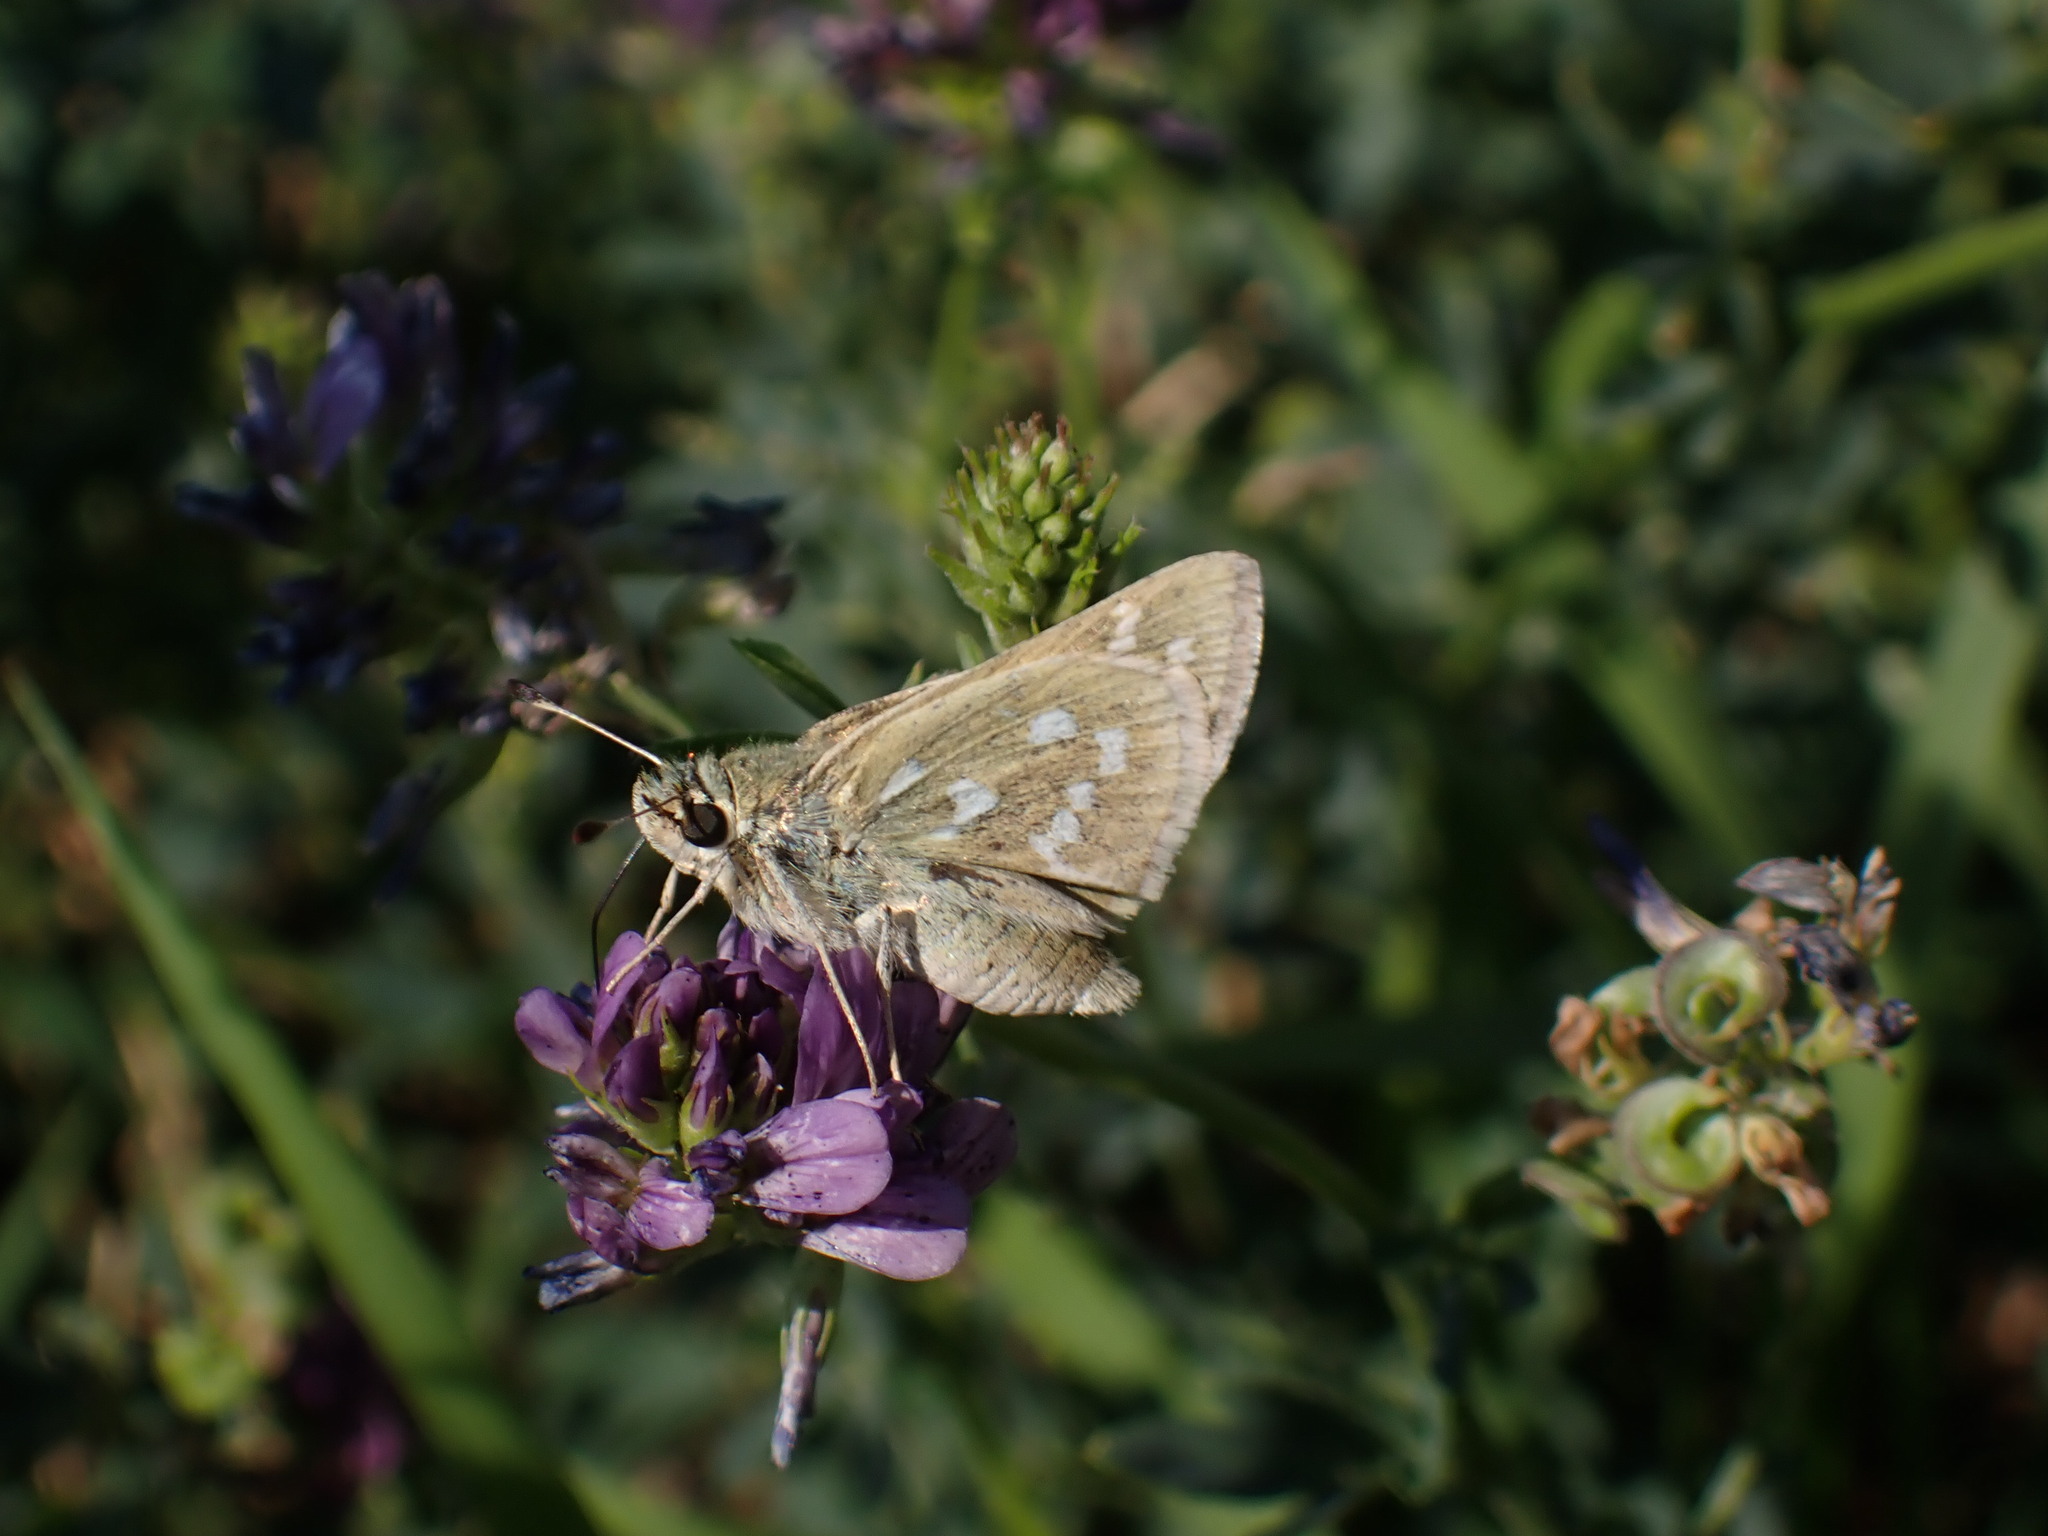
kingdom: Animalia
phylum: Arthropoda
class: Insecta
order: Lepidoptera
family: Hesperiidae
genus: Hesperia
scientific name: Hesperia comma
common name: Common branded skipper
